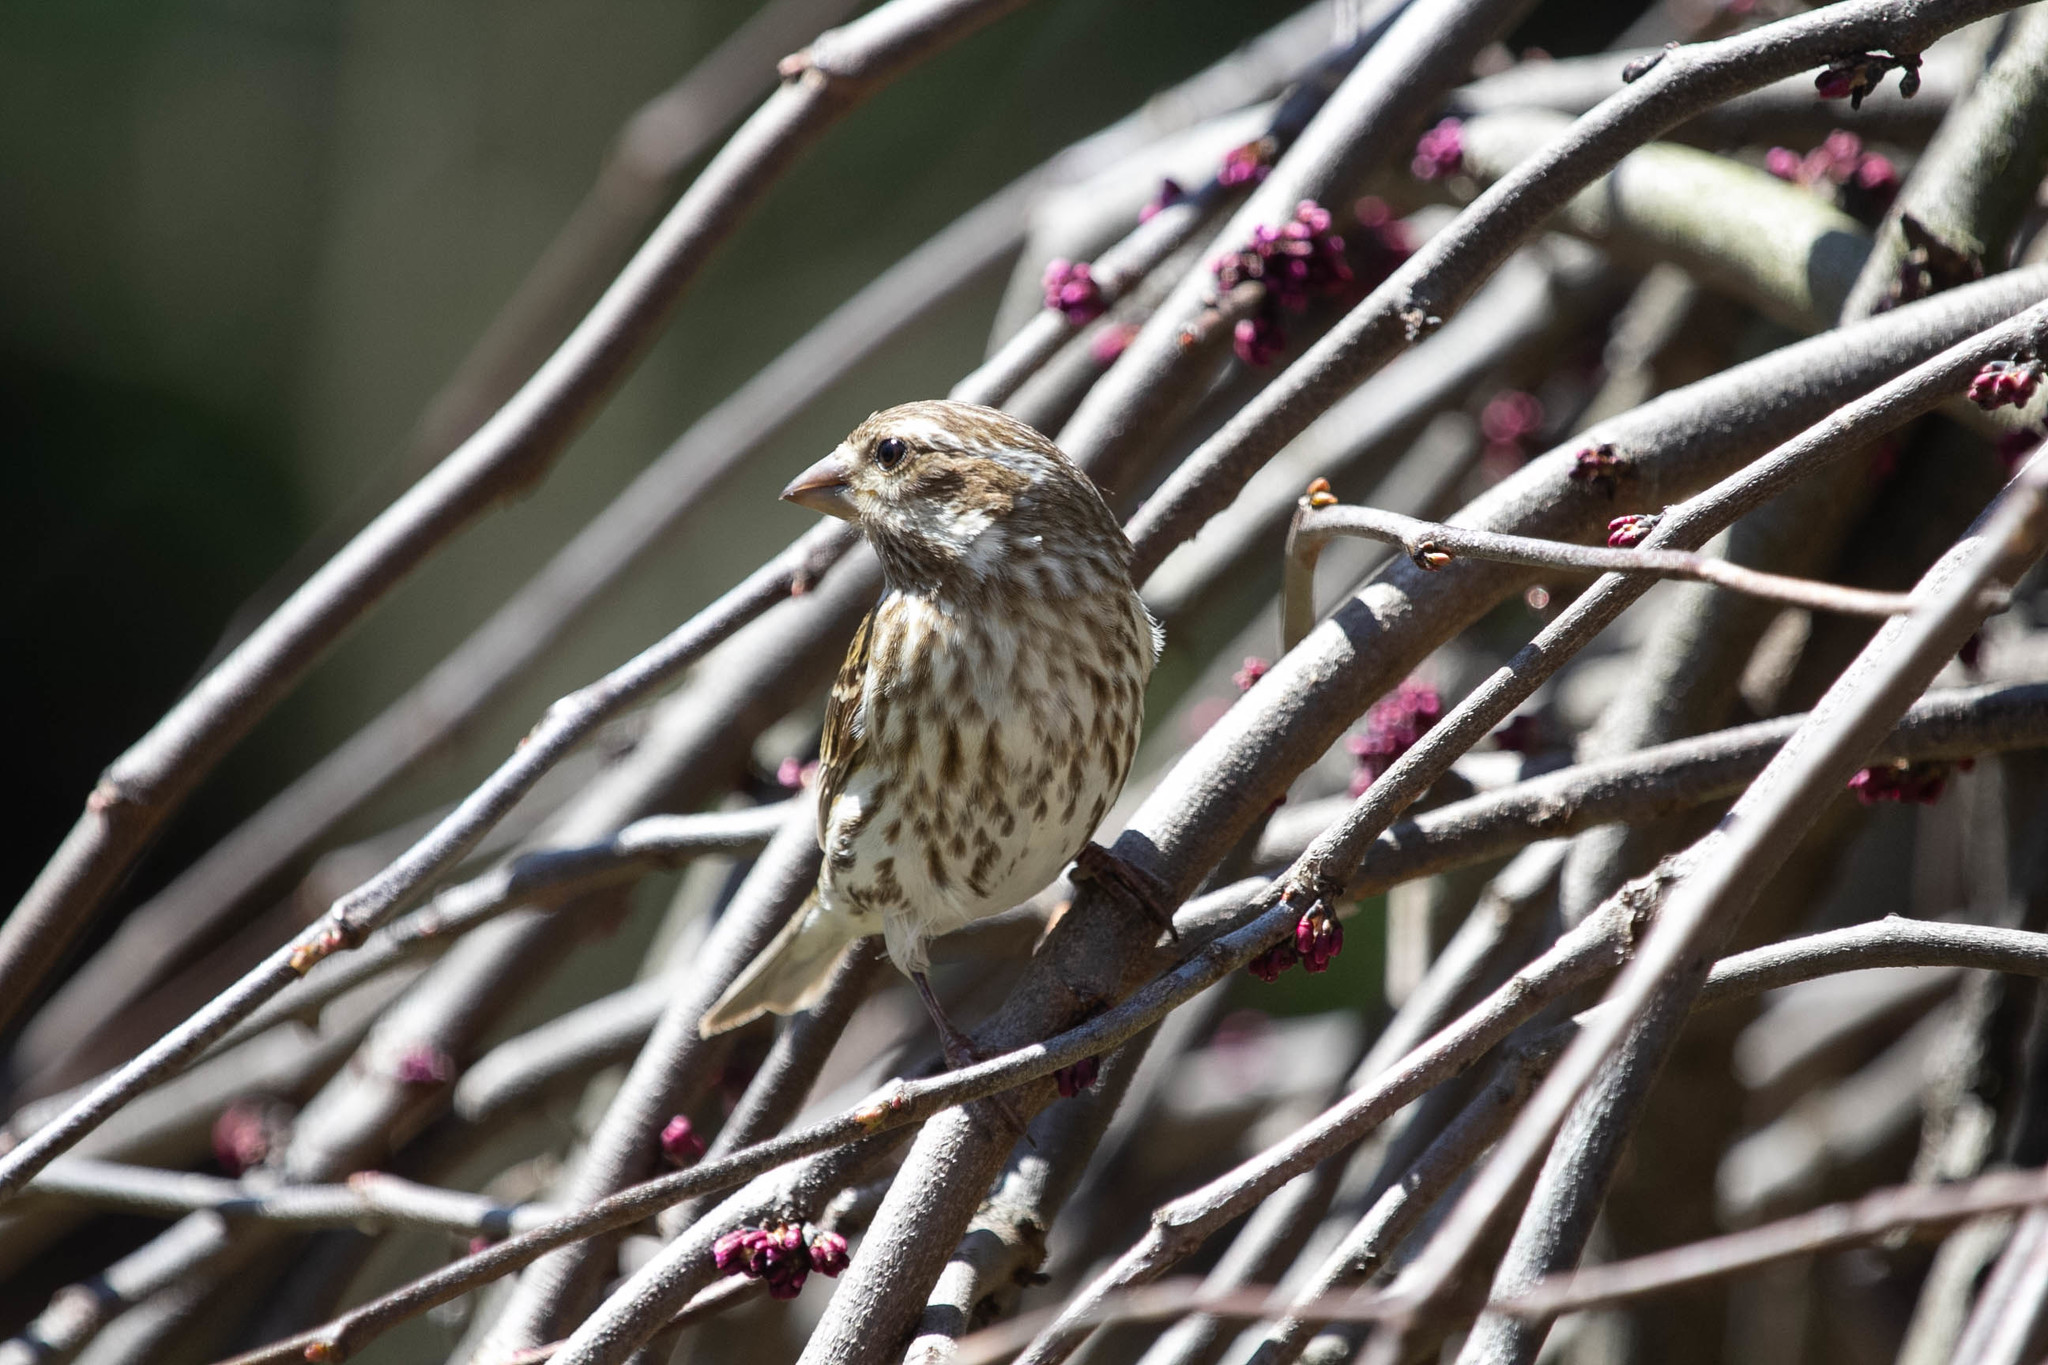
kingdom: Animalia
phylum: Chordata
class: Aves
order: Passeriformes
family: Fringillidae
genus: Haemorhous
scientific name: Haemorhous purpureus
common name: Purple finch
